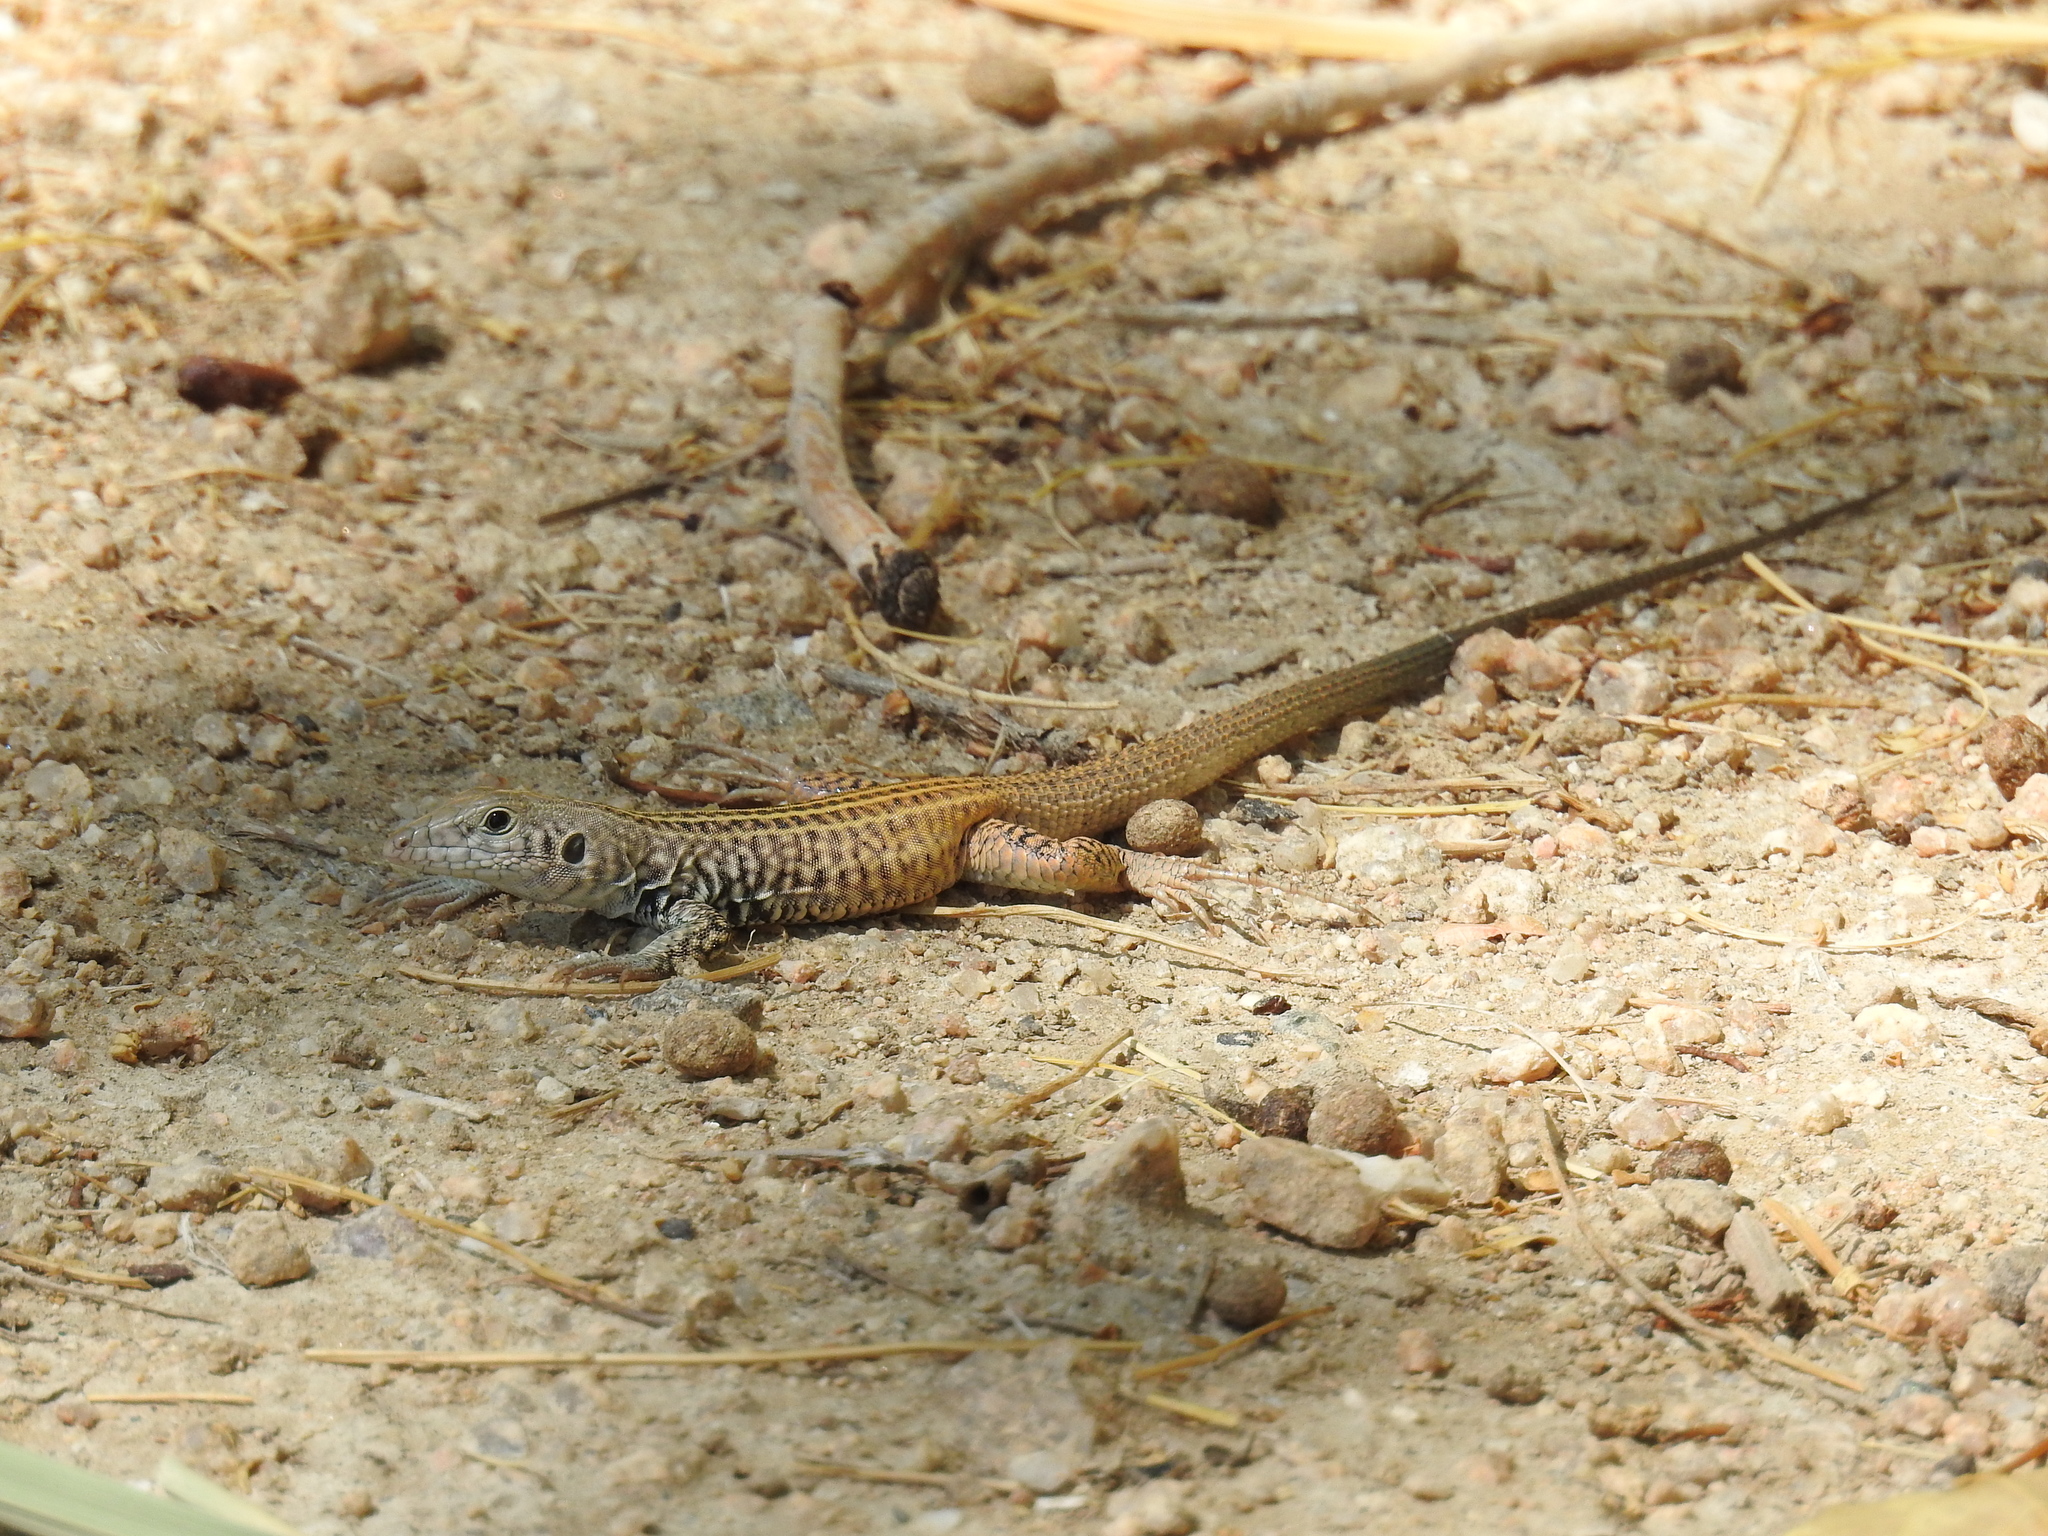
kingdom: Animalia
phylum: Chordata
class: Squamata
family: Teiidae
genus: Aspidoscelis
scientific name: Aspidoscelis tigris
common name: Tiger whiptail
